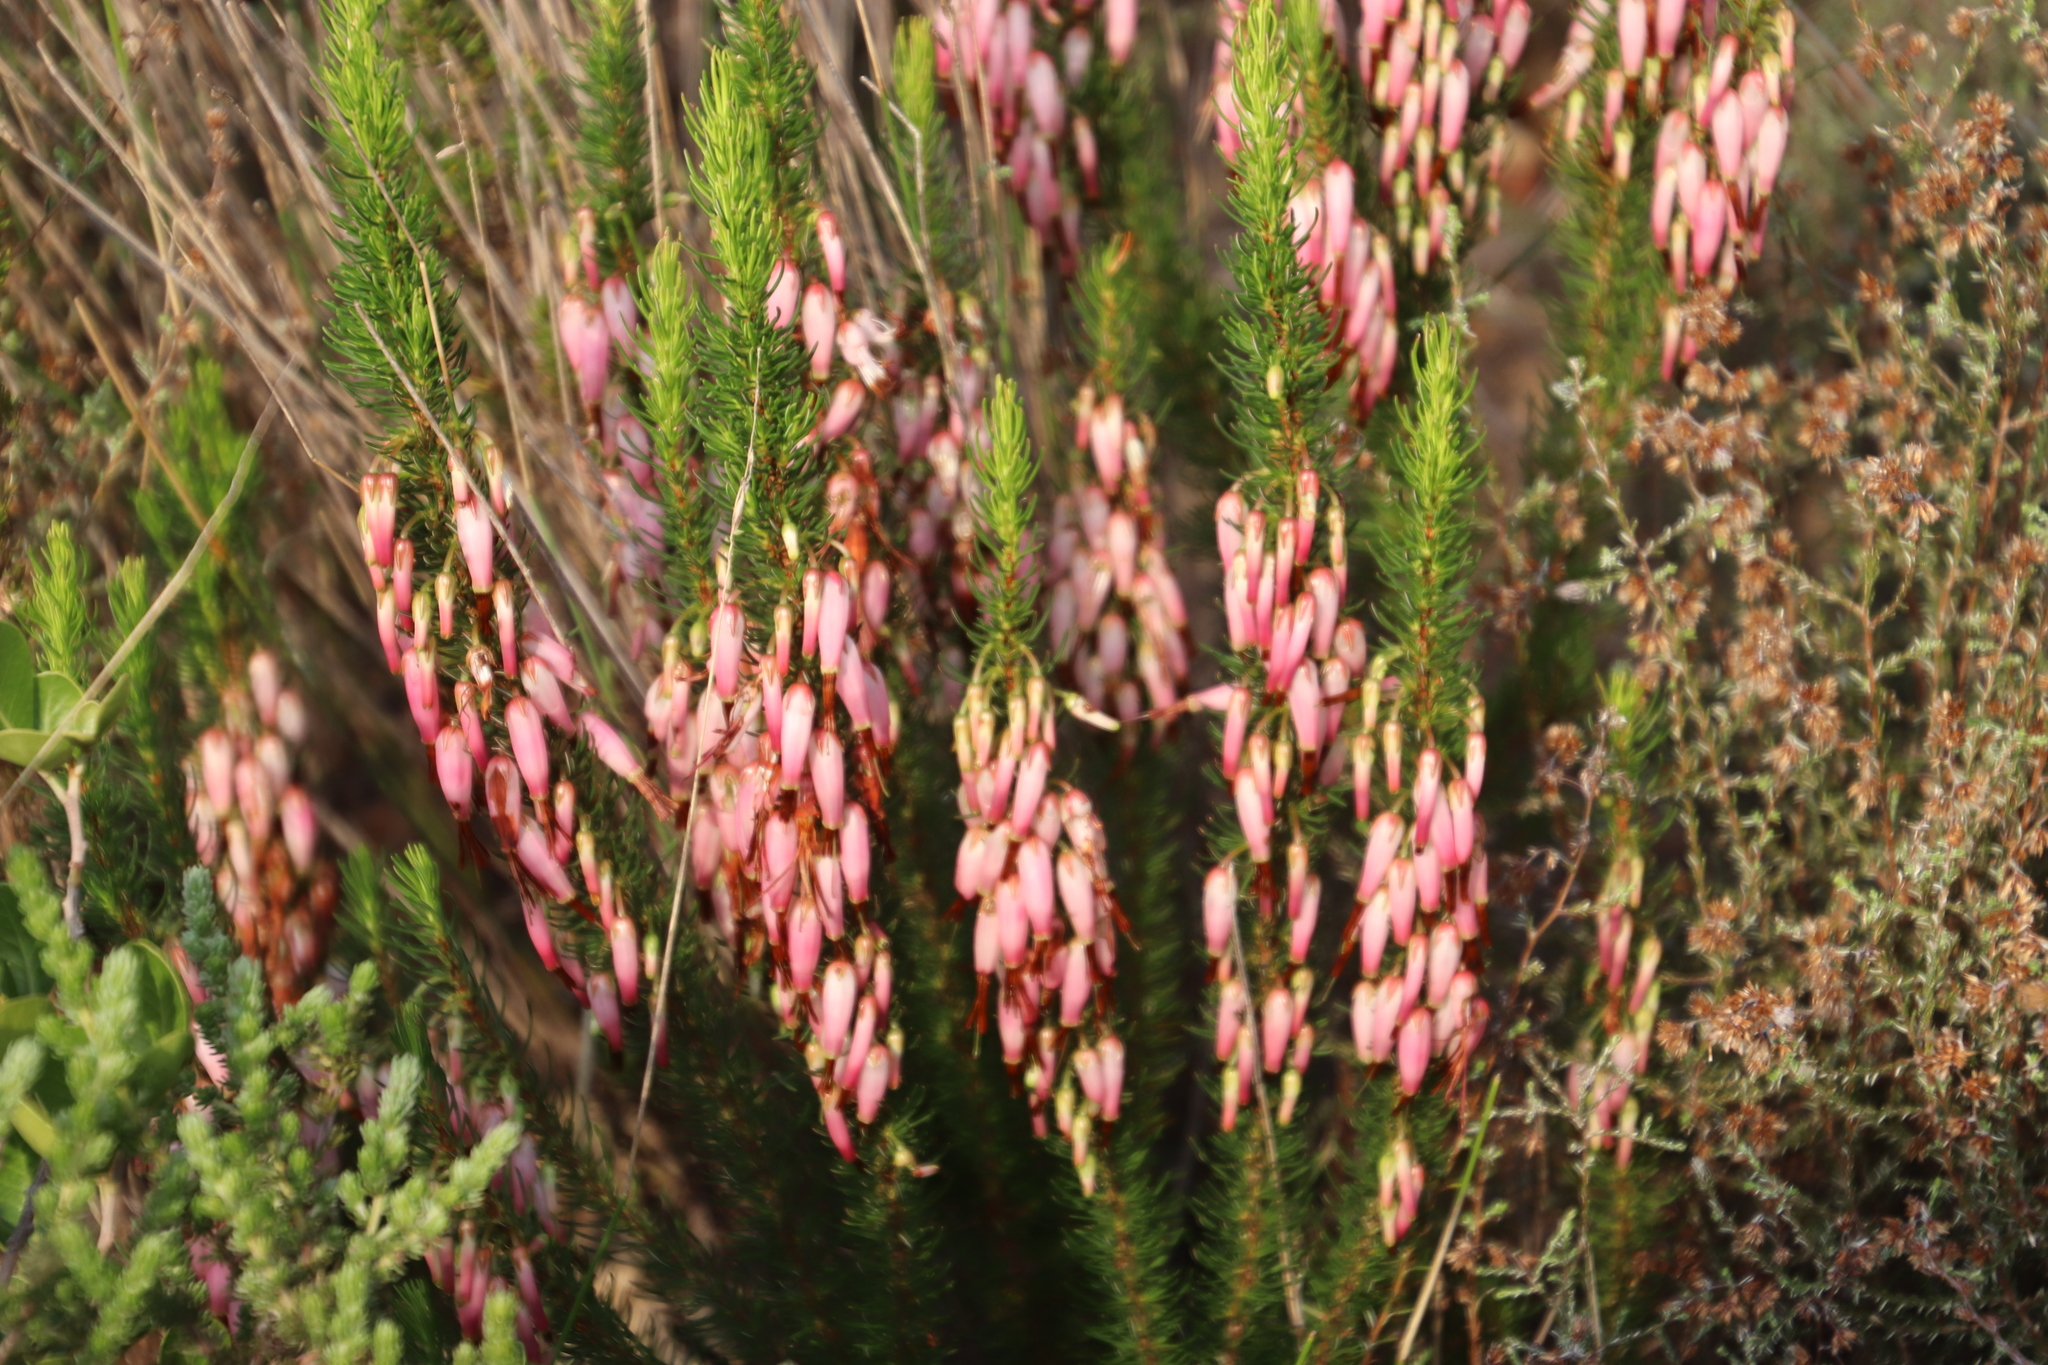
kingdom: Plantae
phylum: Tracheophyta
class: Magnoliopsida
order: Ericales
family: Ericaceae
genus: Erica
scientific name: Erica plukenetii
